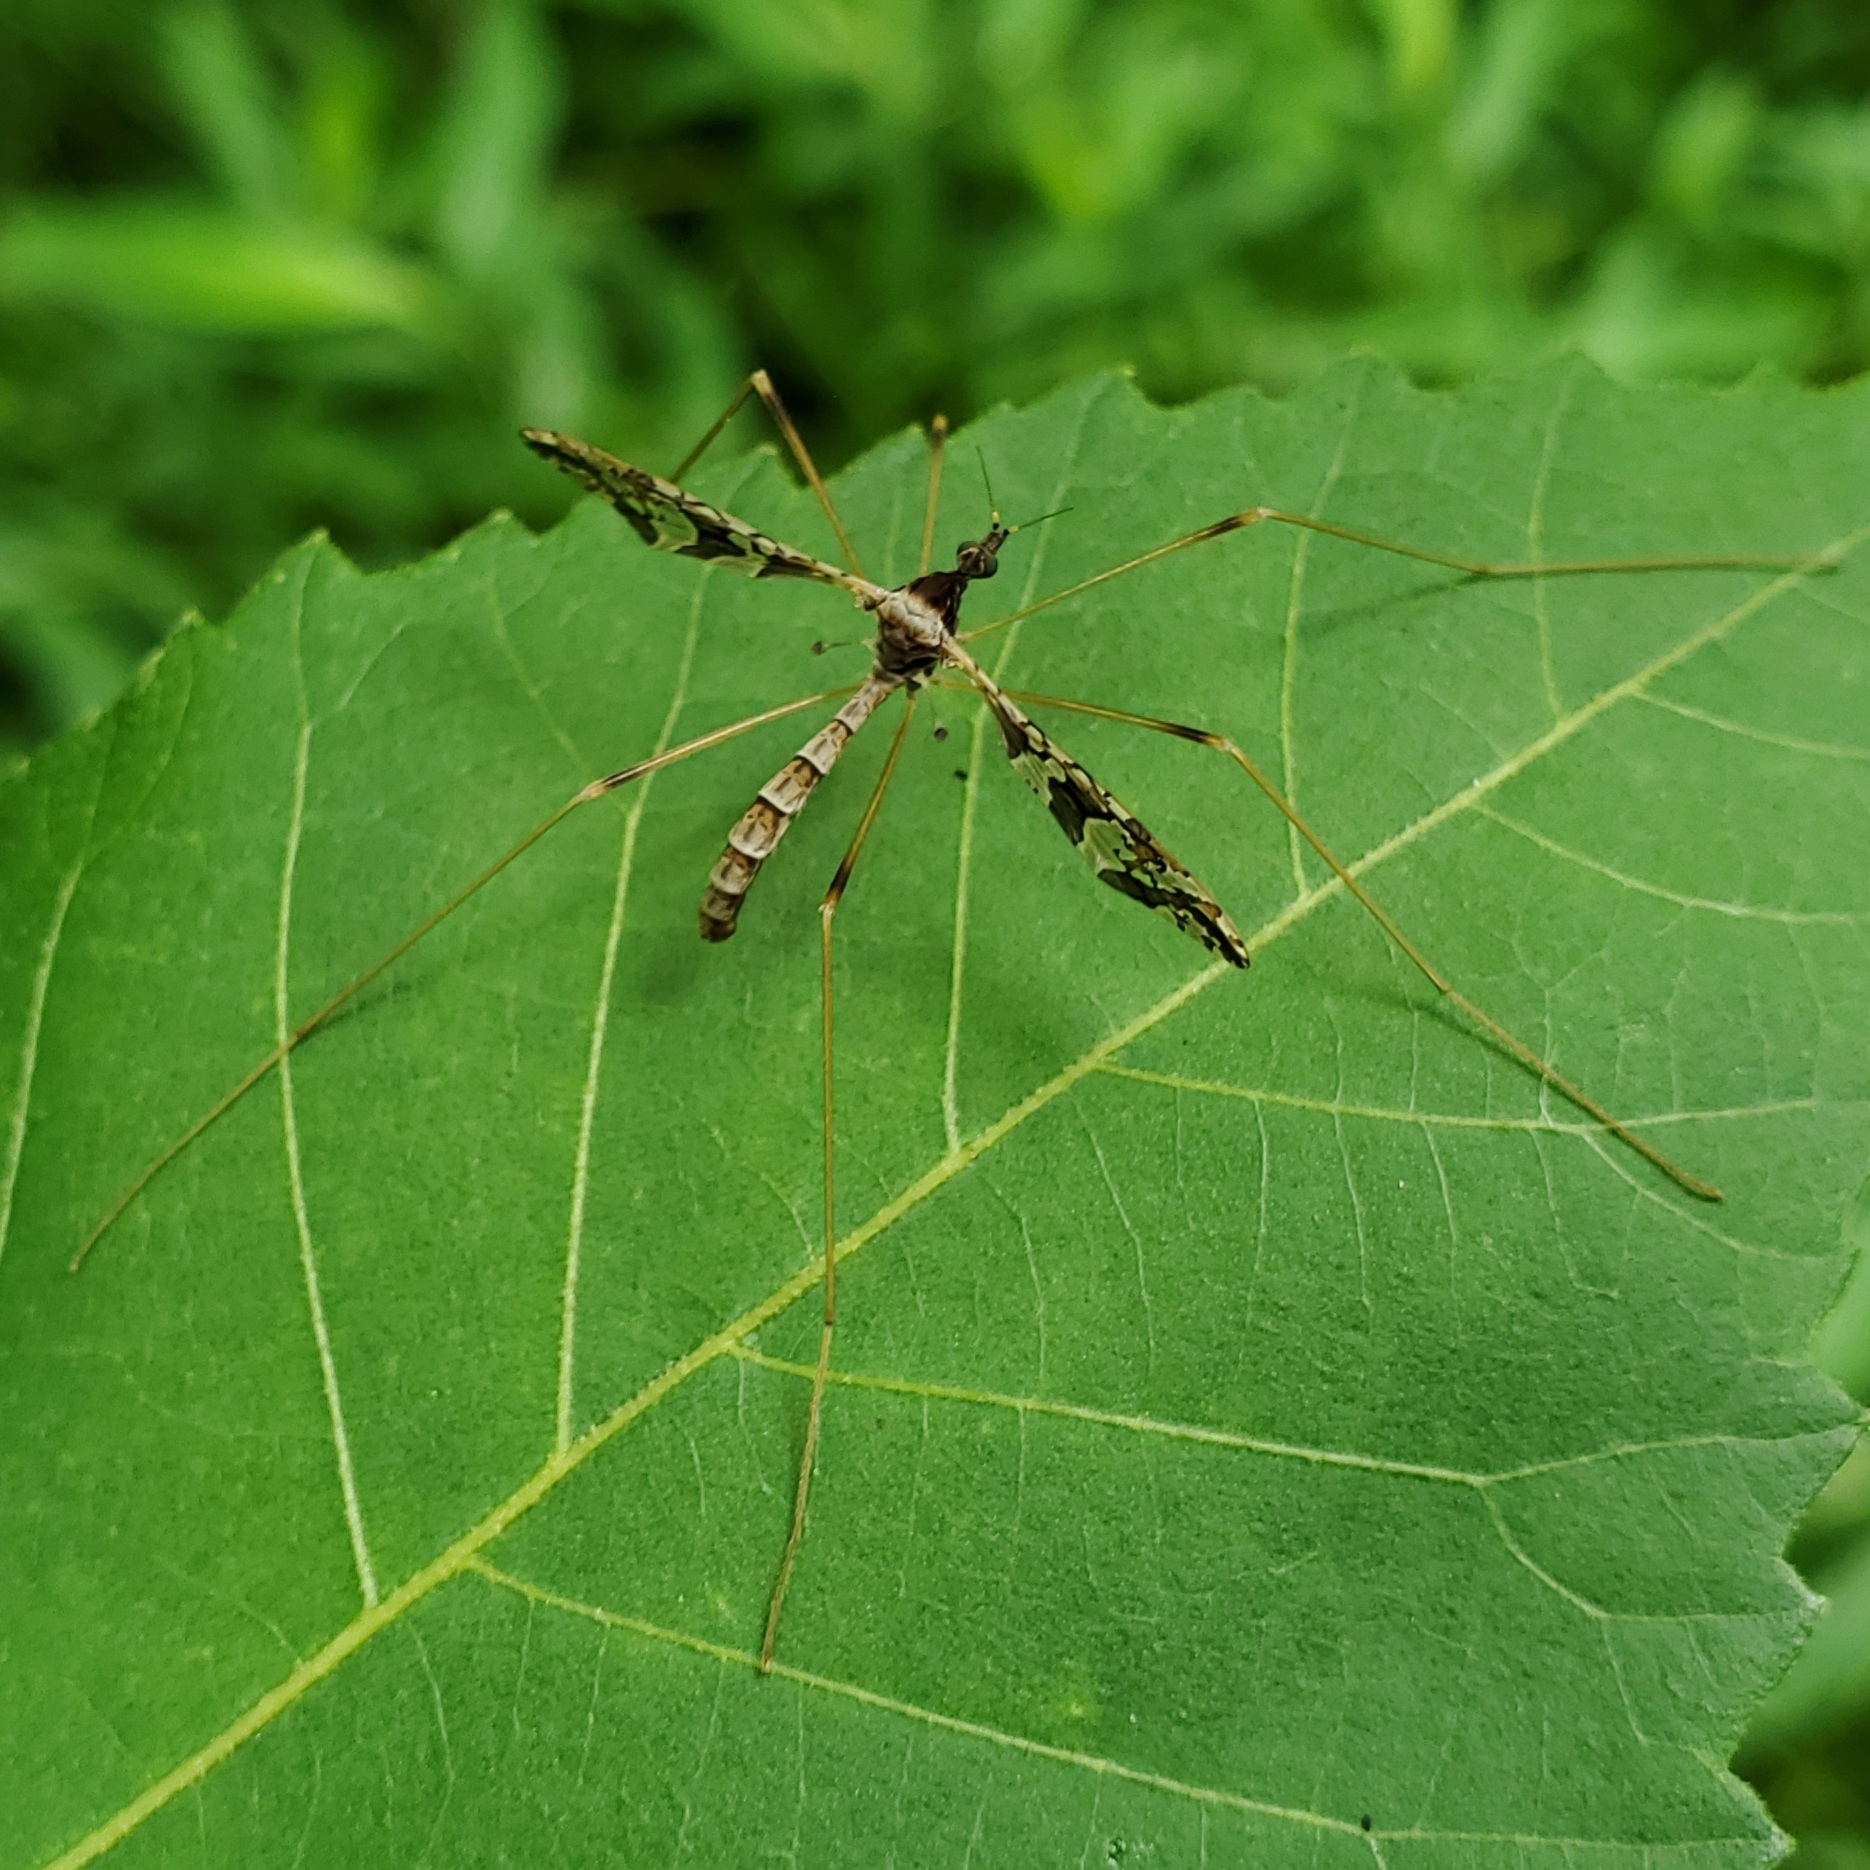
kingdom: Animalia
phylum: Arthropoda
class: Insecta
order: Diptera
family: Limoniidae
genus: Epiphragma
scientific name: Epiphragma solatrix
